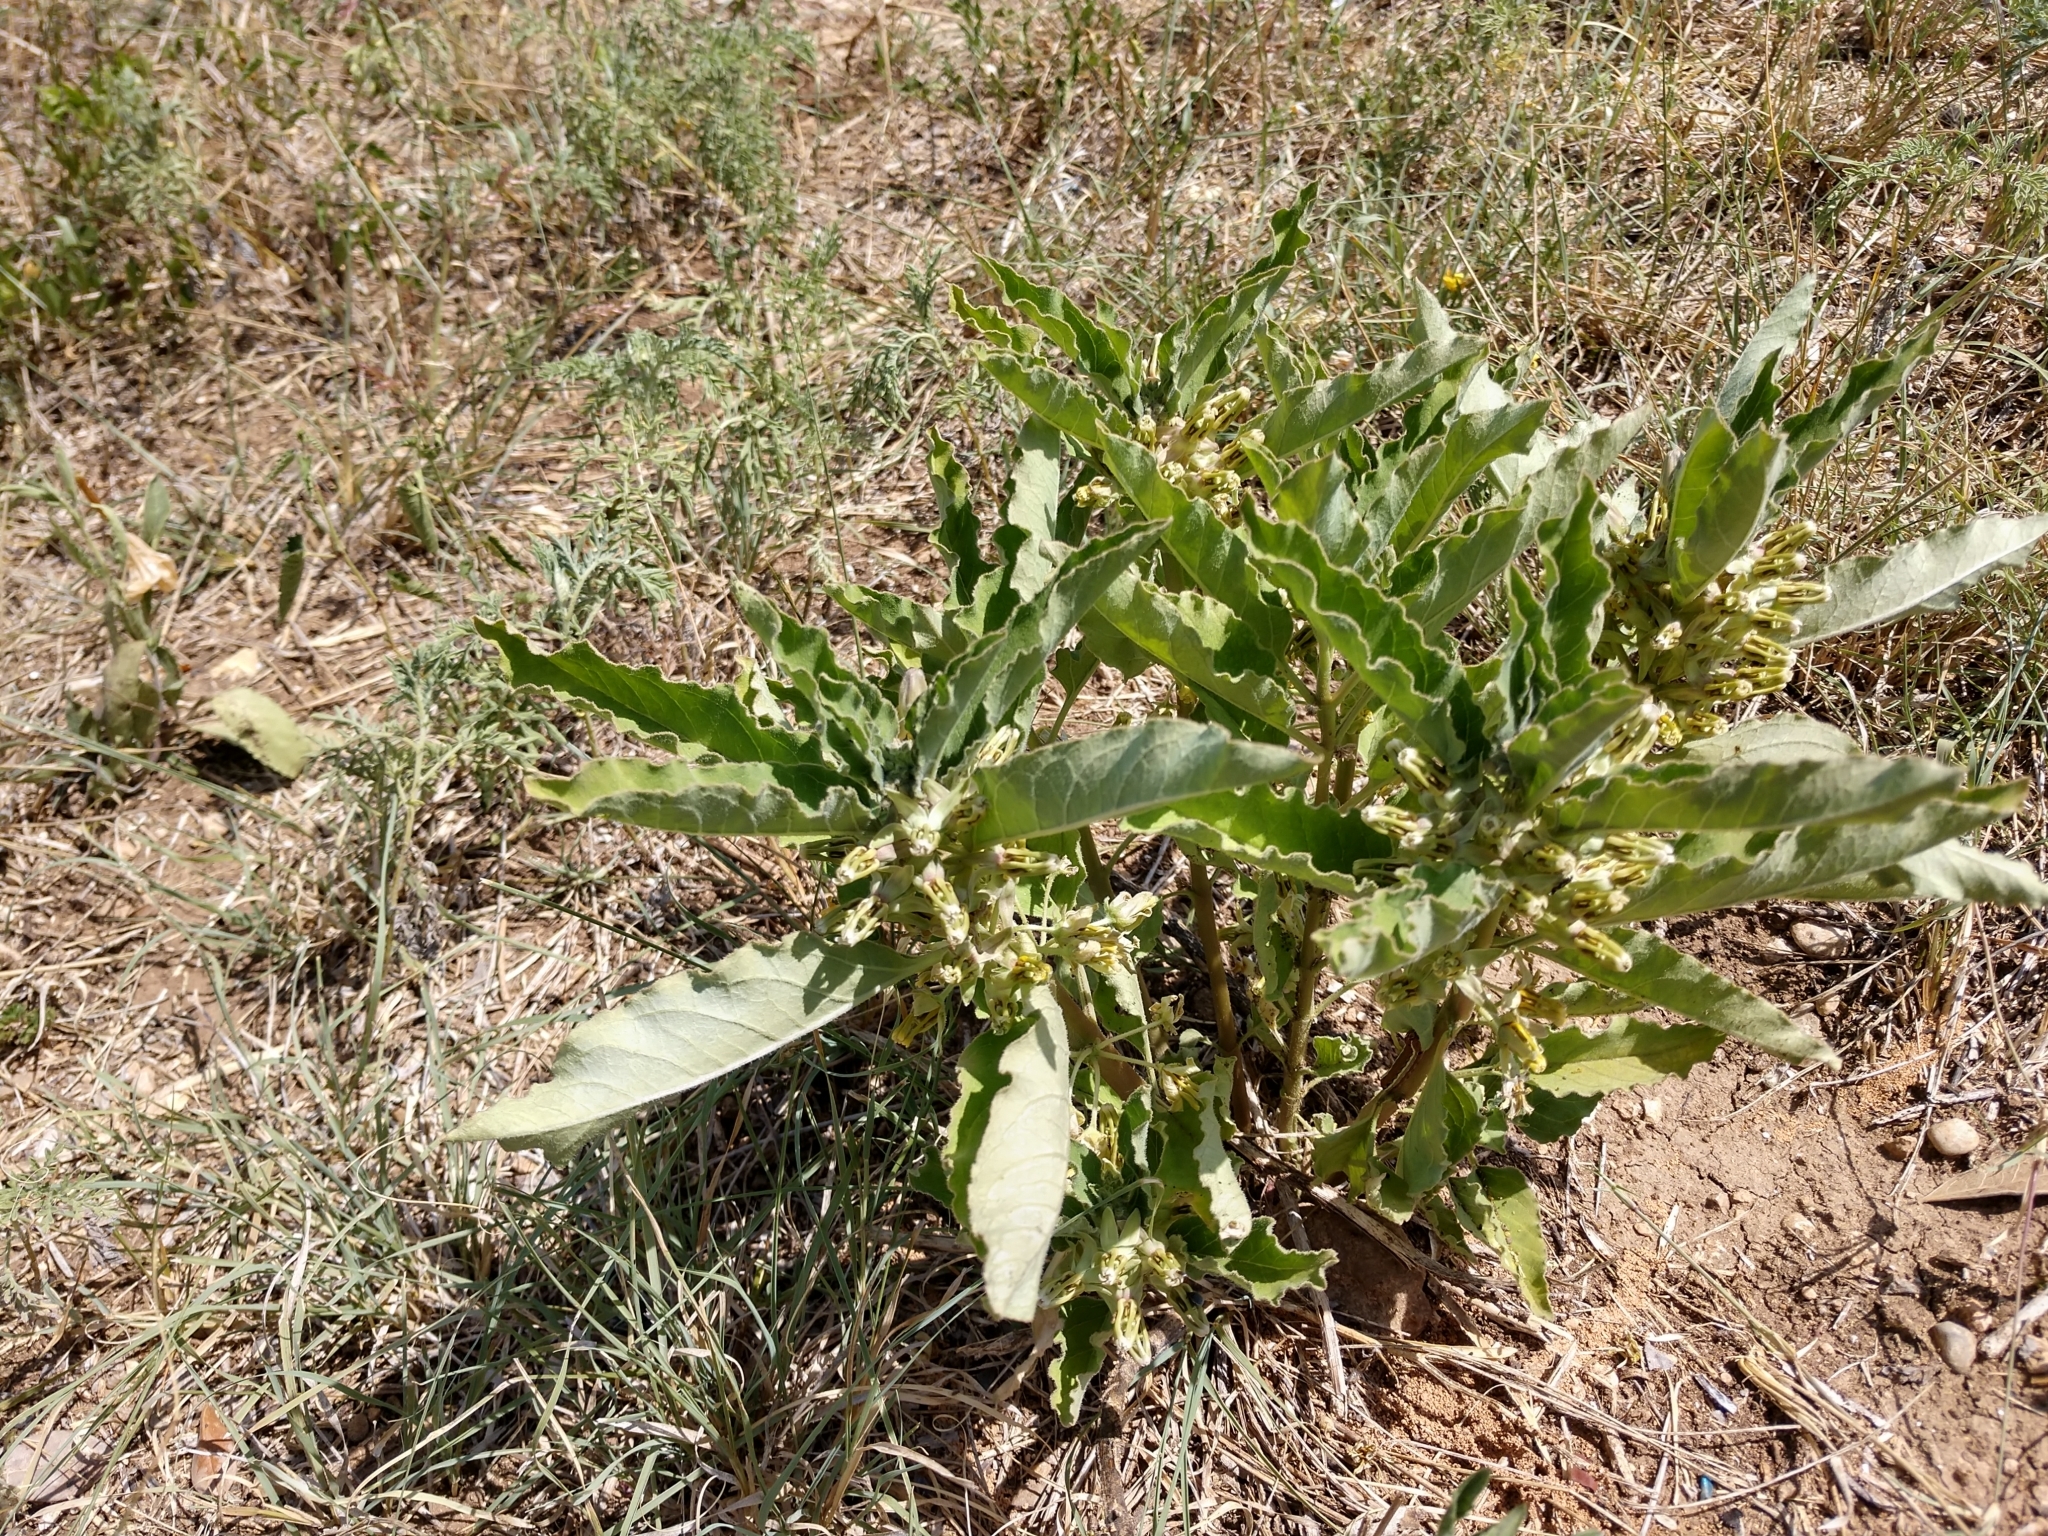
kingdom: Plantae
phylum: Tracheophyta
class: Magnoliopsida
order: Gentianales
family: Apocynaceae
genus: Asclepias
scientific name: Asclepias oenotheroides
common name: Zizotes milkweed
